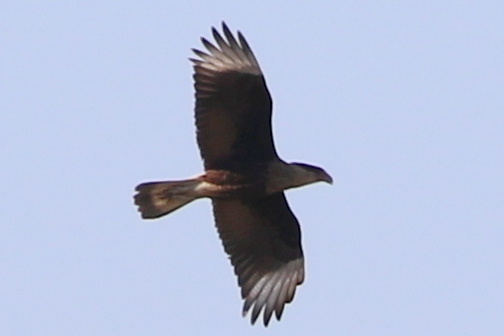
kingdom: Animalia
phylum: Chordata
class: Aves
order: Falconiformes
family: Falconidae
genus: Caracara
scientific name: Caracara plancus
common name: Southern caracara
